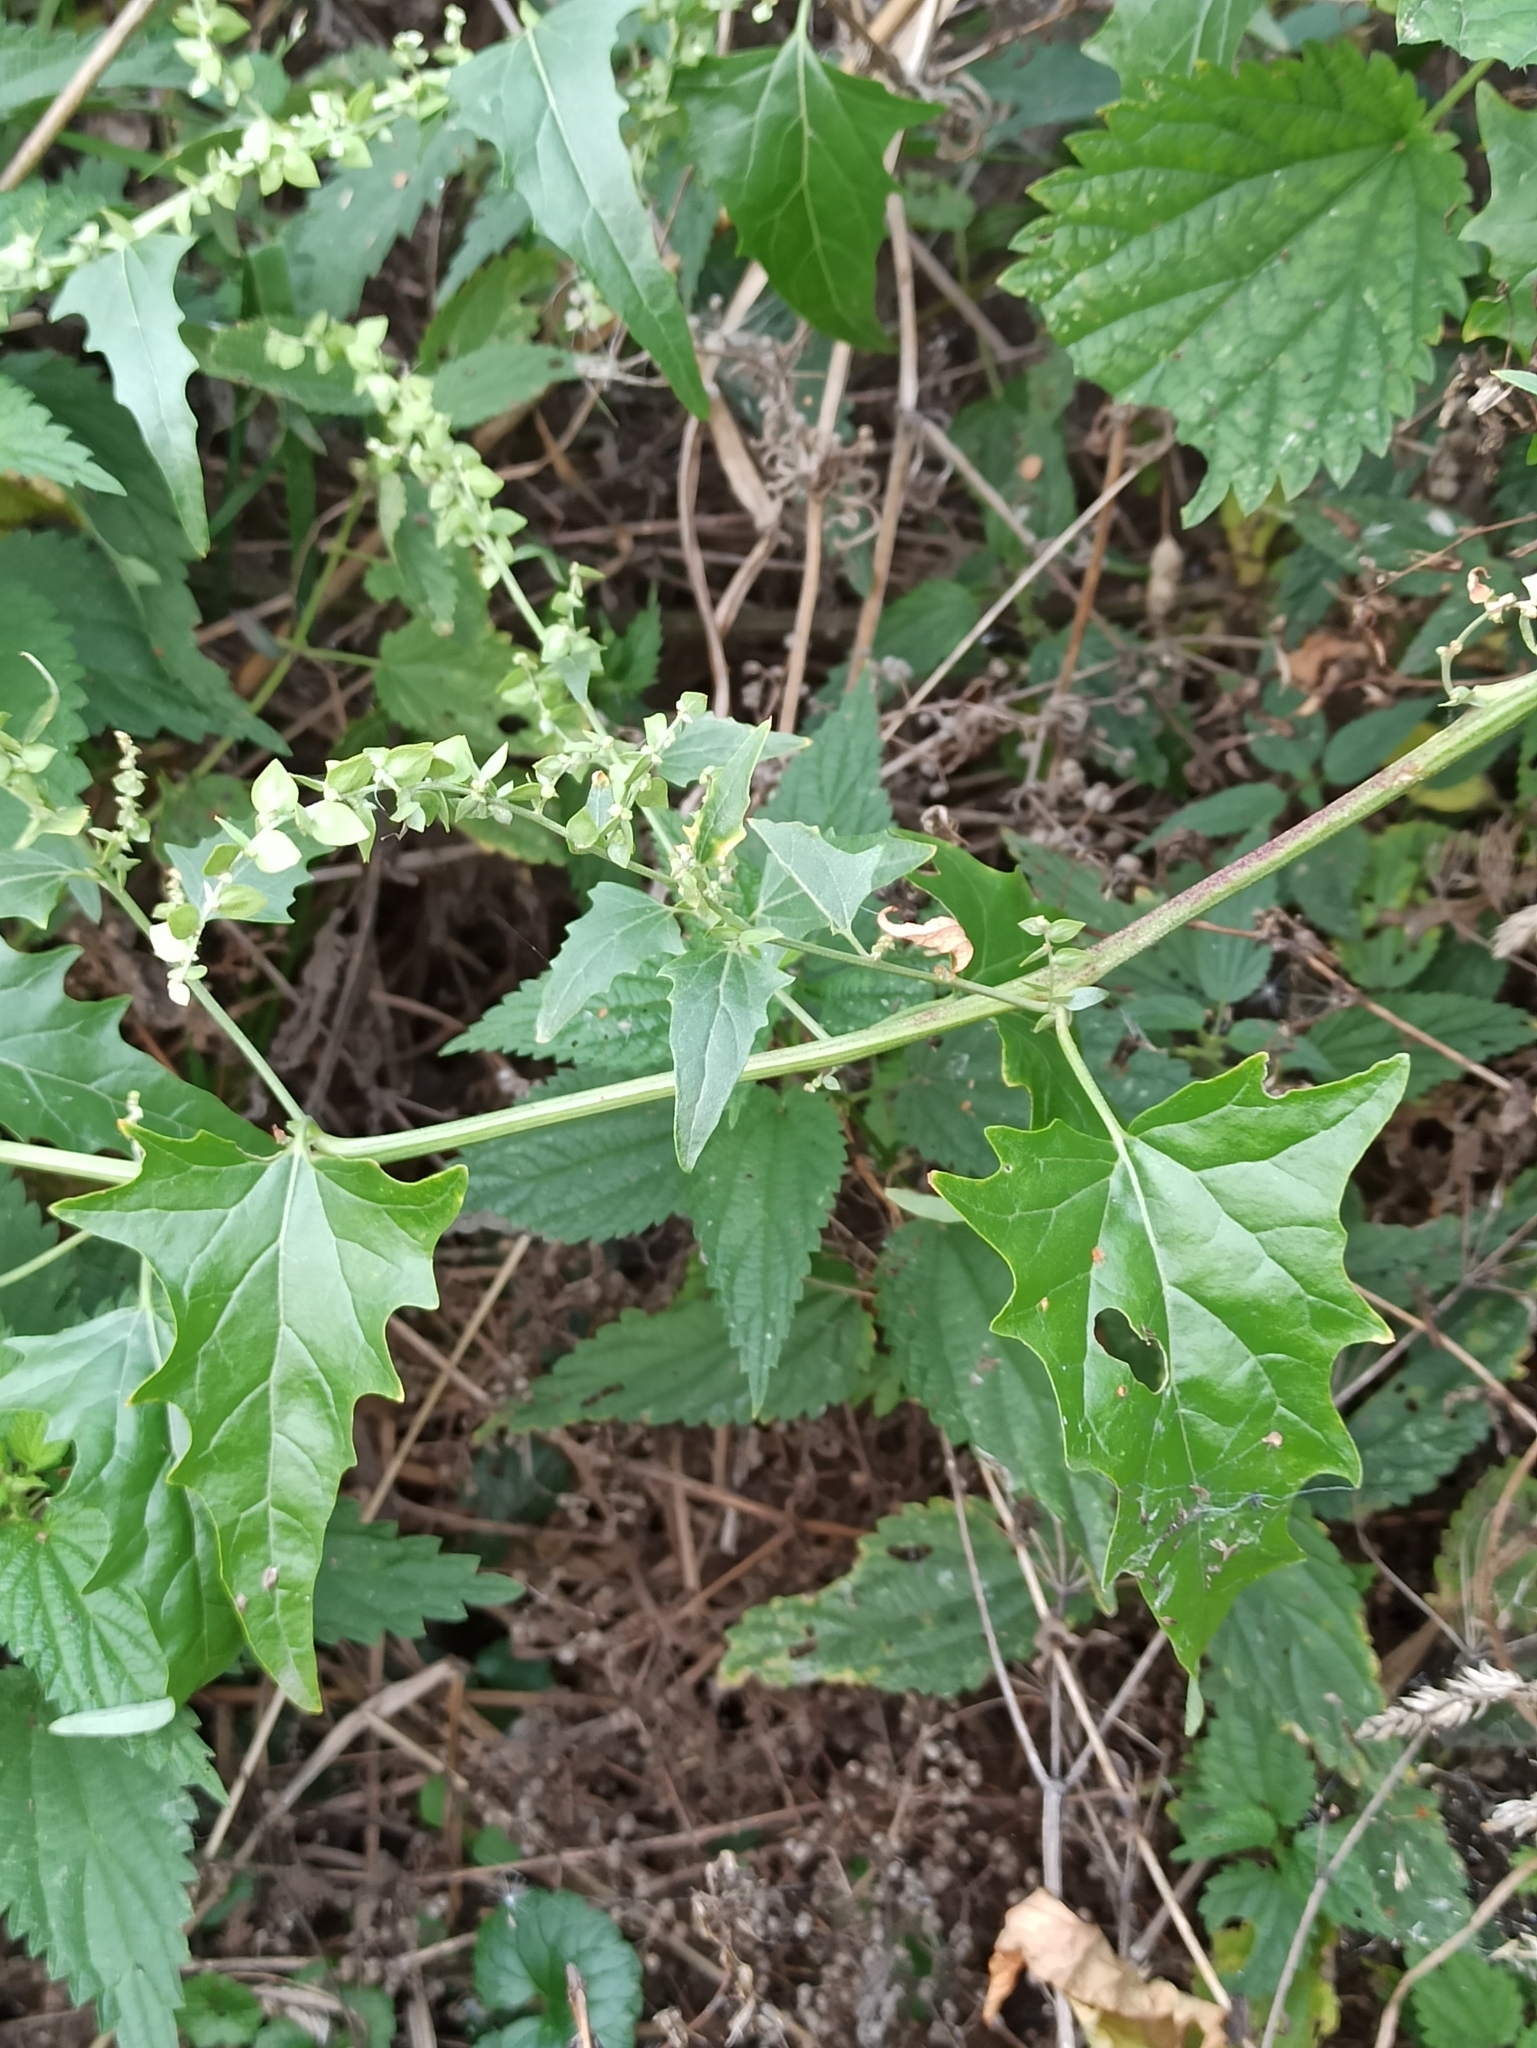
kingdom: Plantae
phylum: Tracheophyta
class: Magnoliopsida
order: Caryophyllales
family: Amaranthaceae
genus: Atriplex
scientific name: Atriplex sagittata
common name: Purple orache
